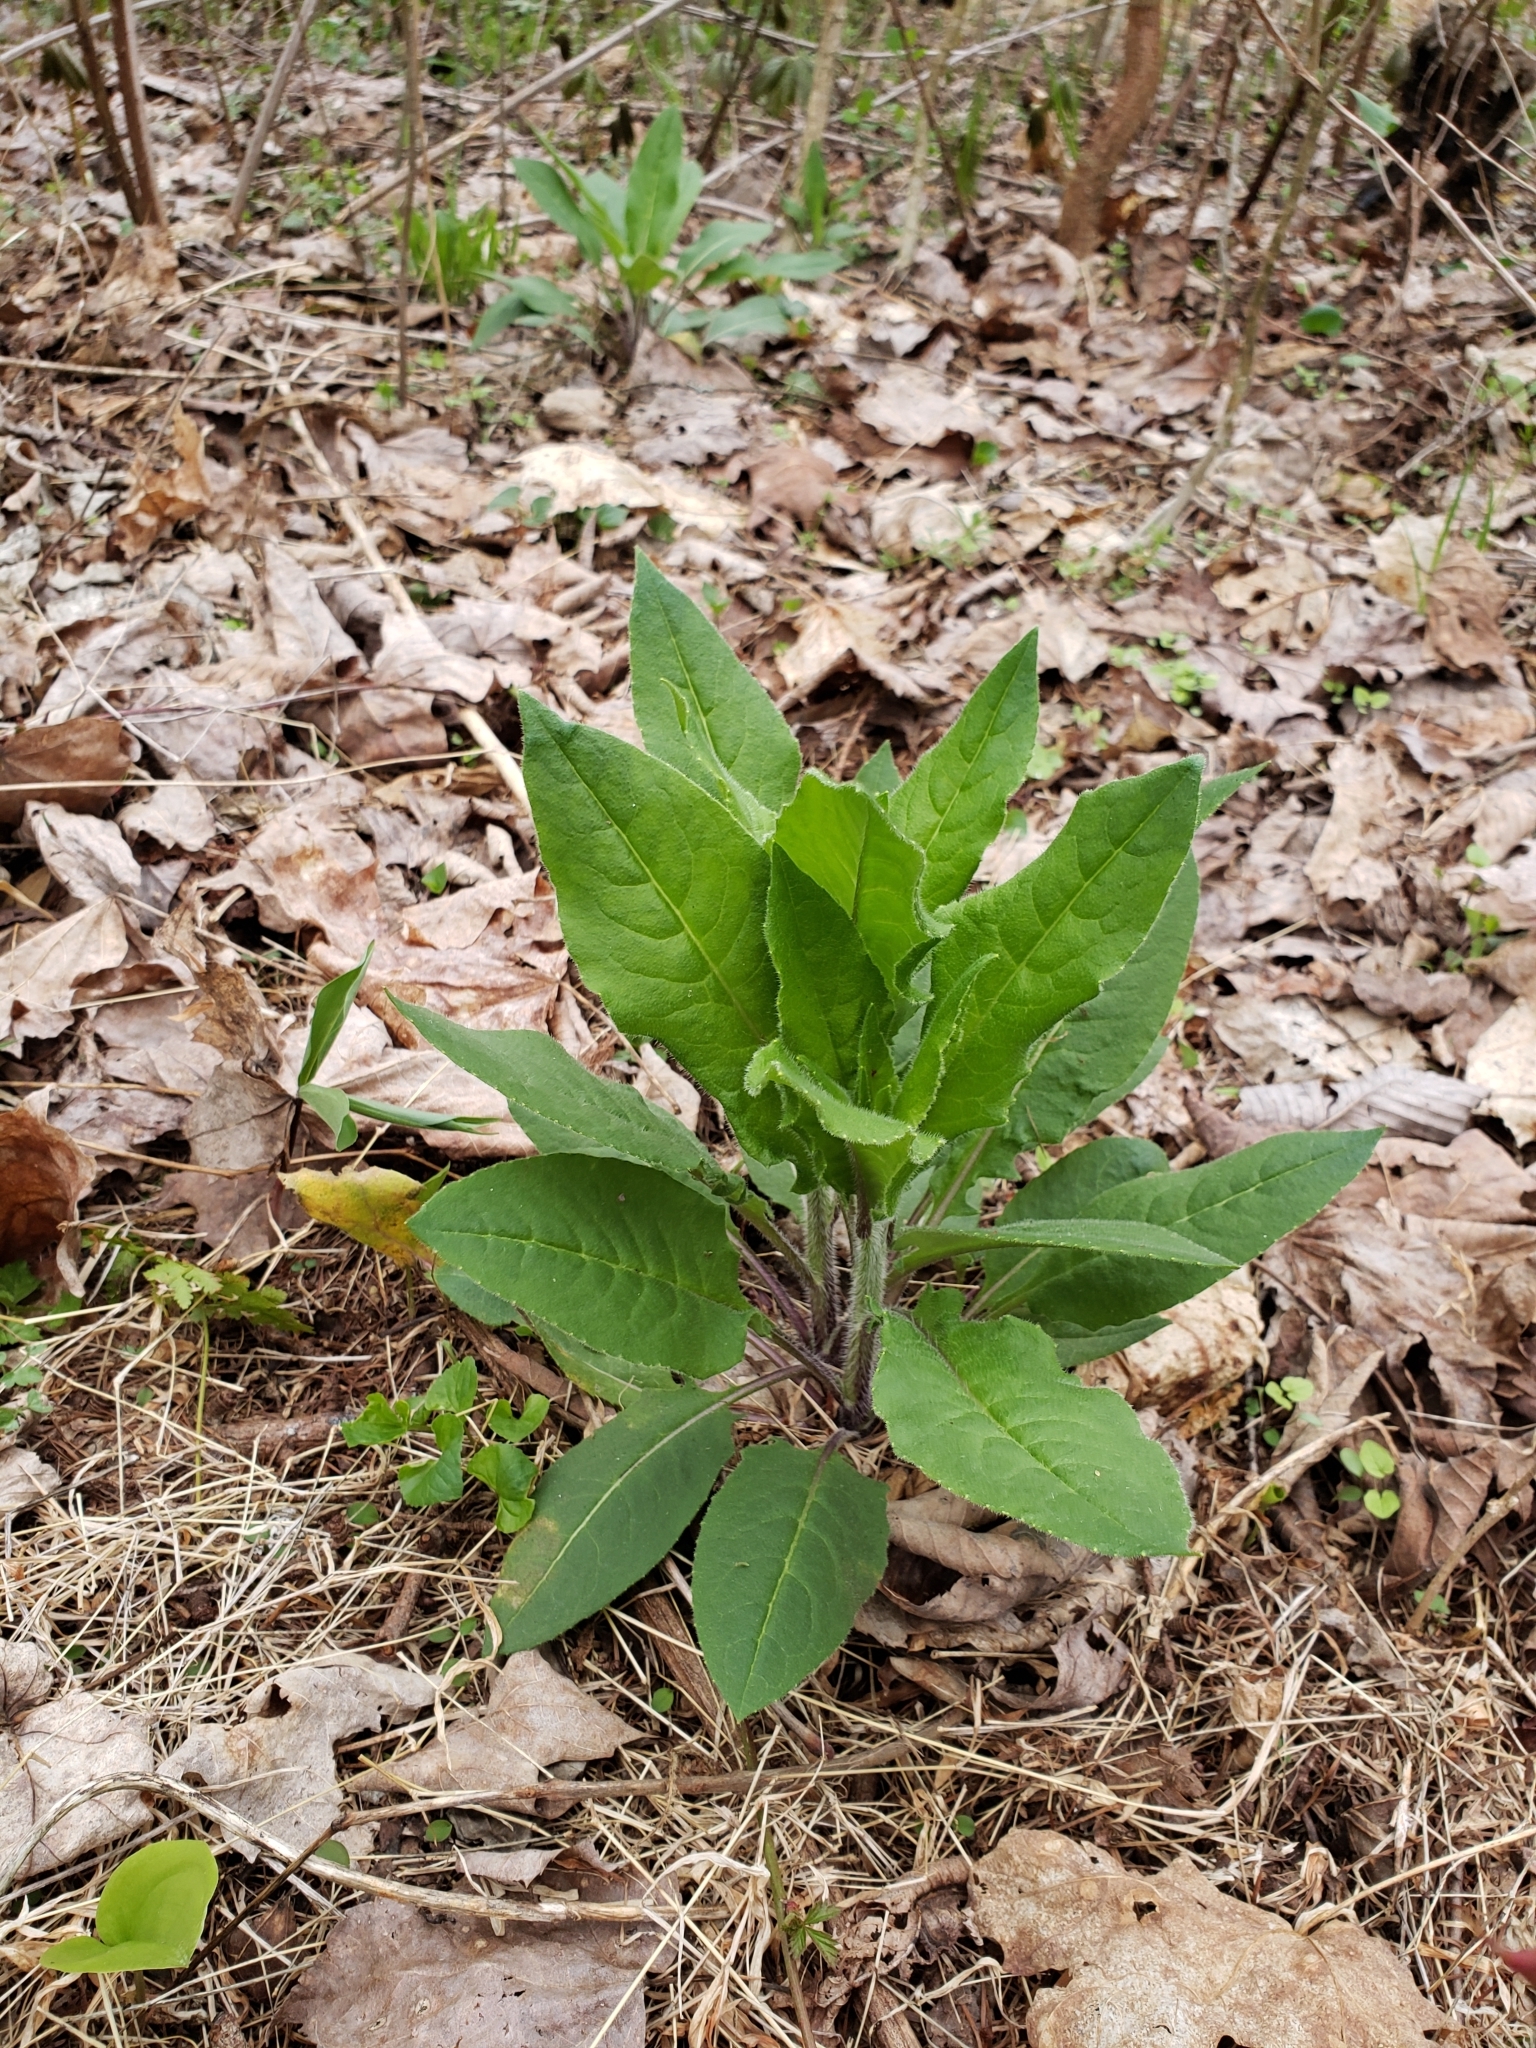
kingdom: Plantae
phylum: Tracheophyta
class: Magnoliopsida
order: Brassicales
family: Brassicaceae
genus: Hesperis
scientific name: Hesperis matronalis
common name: Dame's-violet
